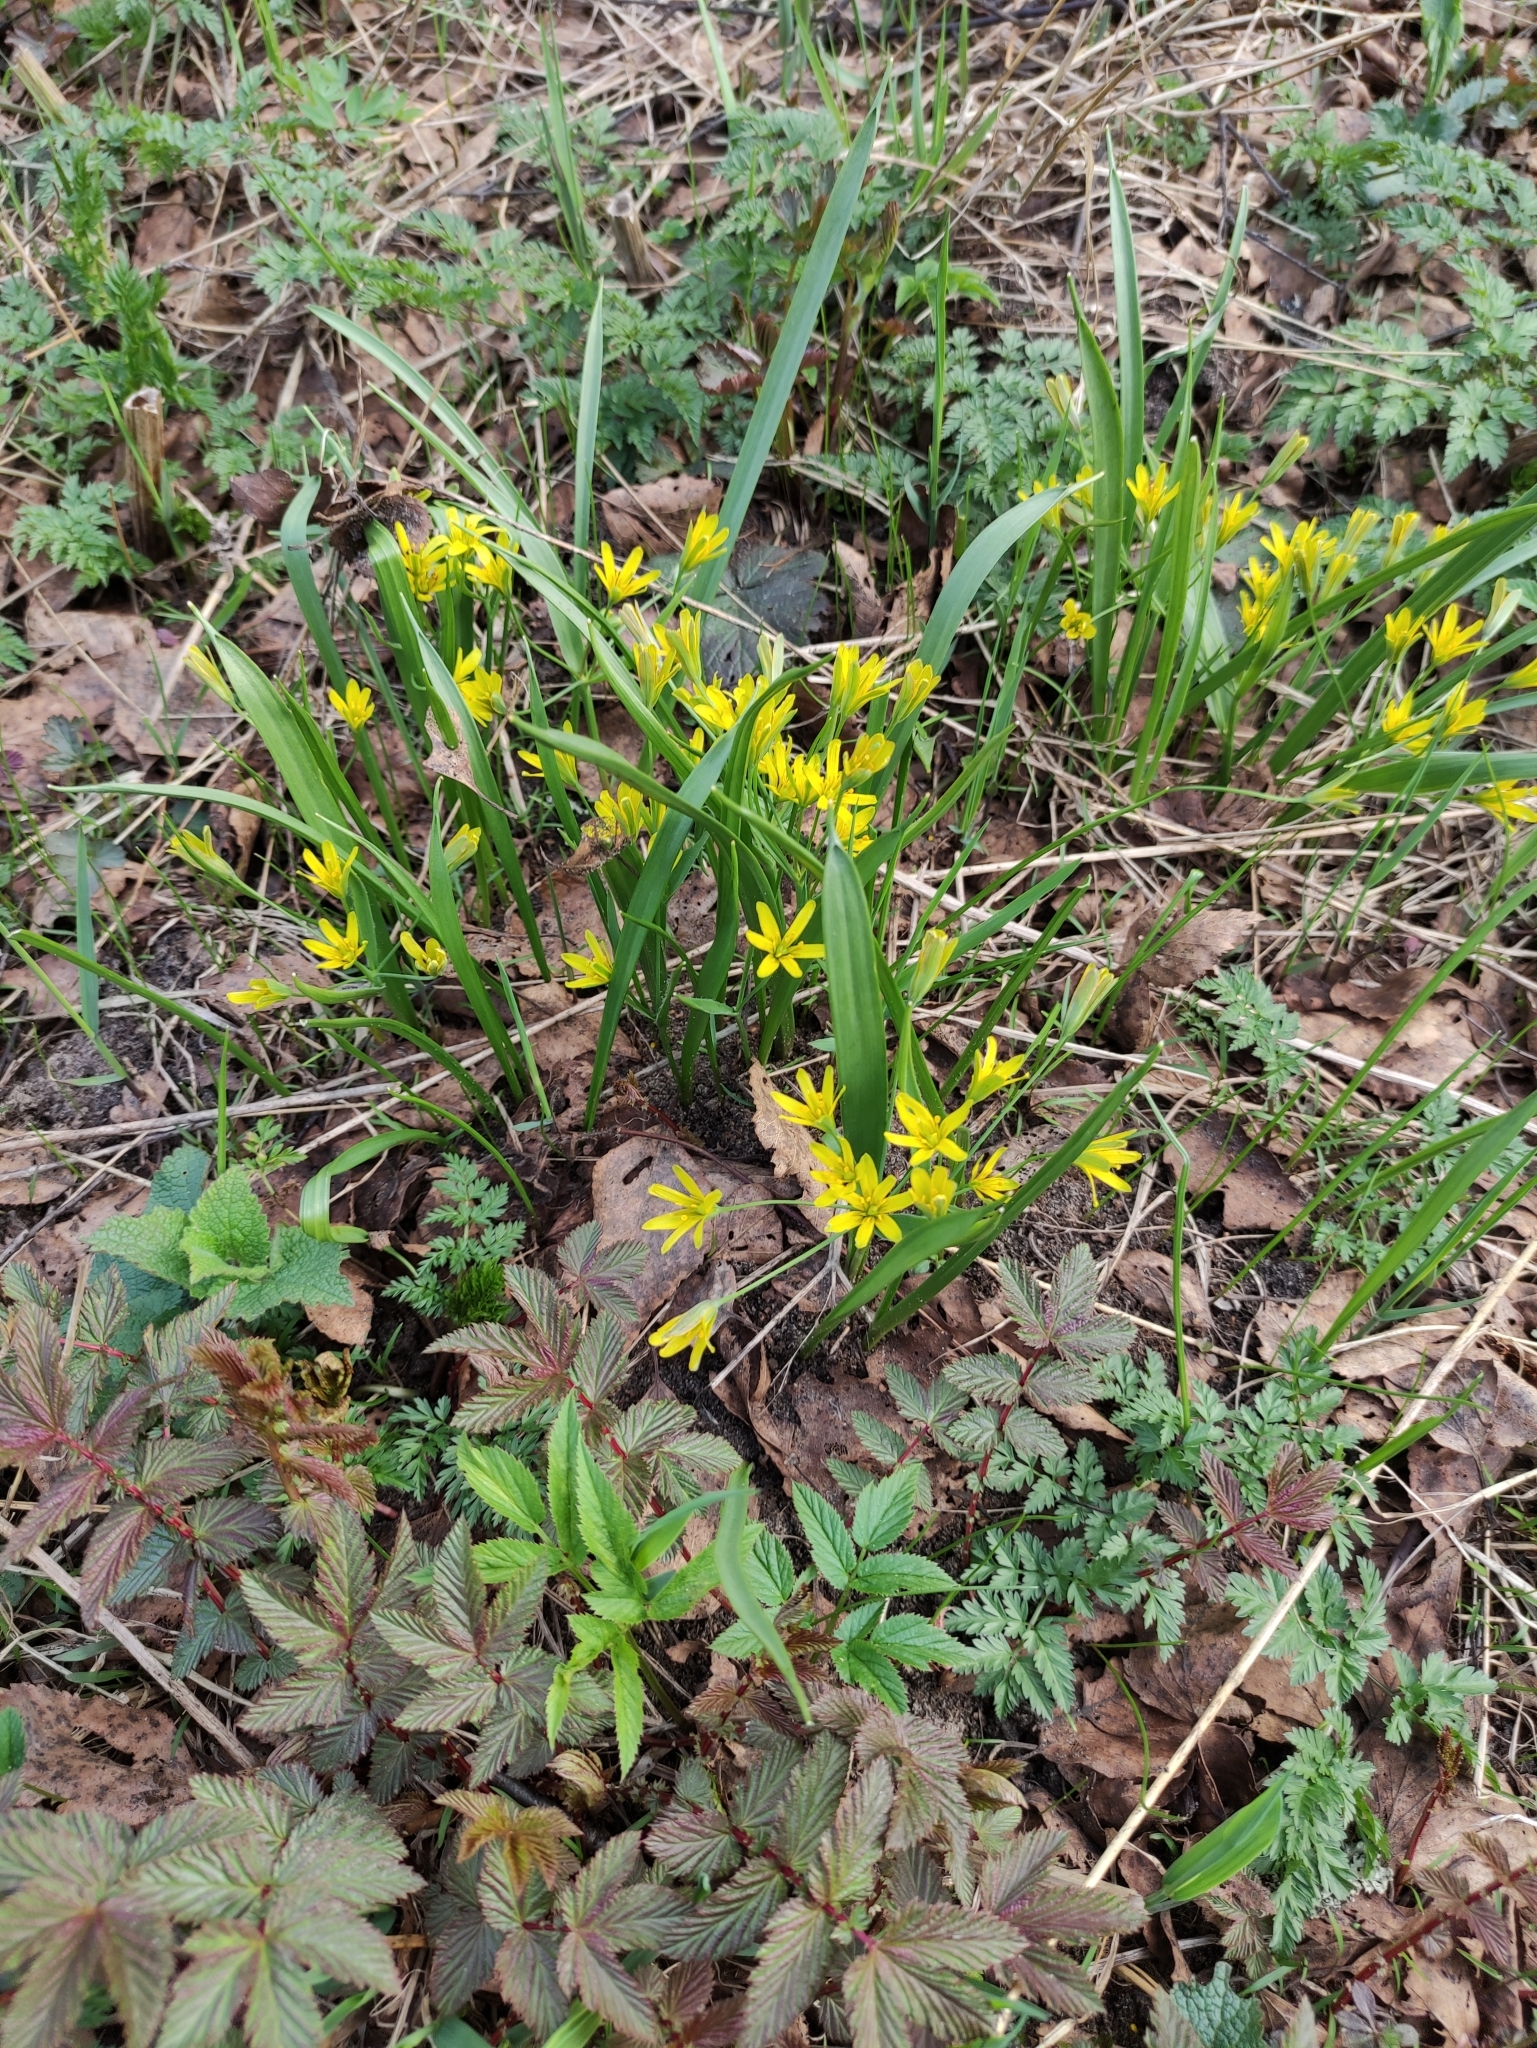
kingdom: Plantae
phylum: Tracheophyta
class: Liliopsida
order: Liliales
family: Liliaceae
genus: Gagea
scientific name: Gagea lutea
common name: Yellow star-of-bethlehem
